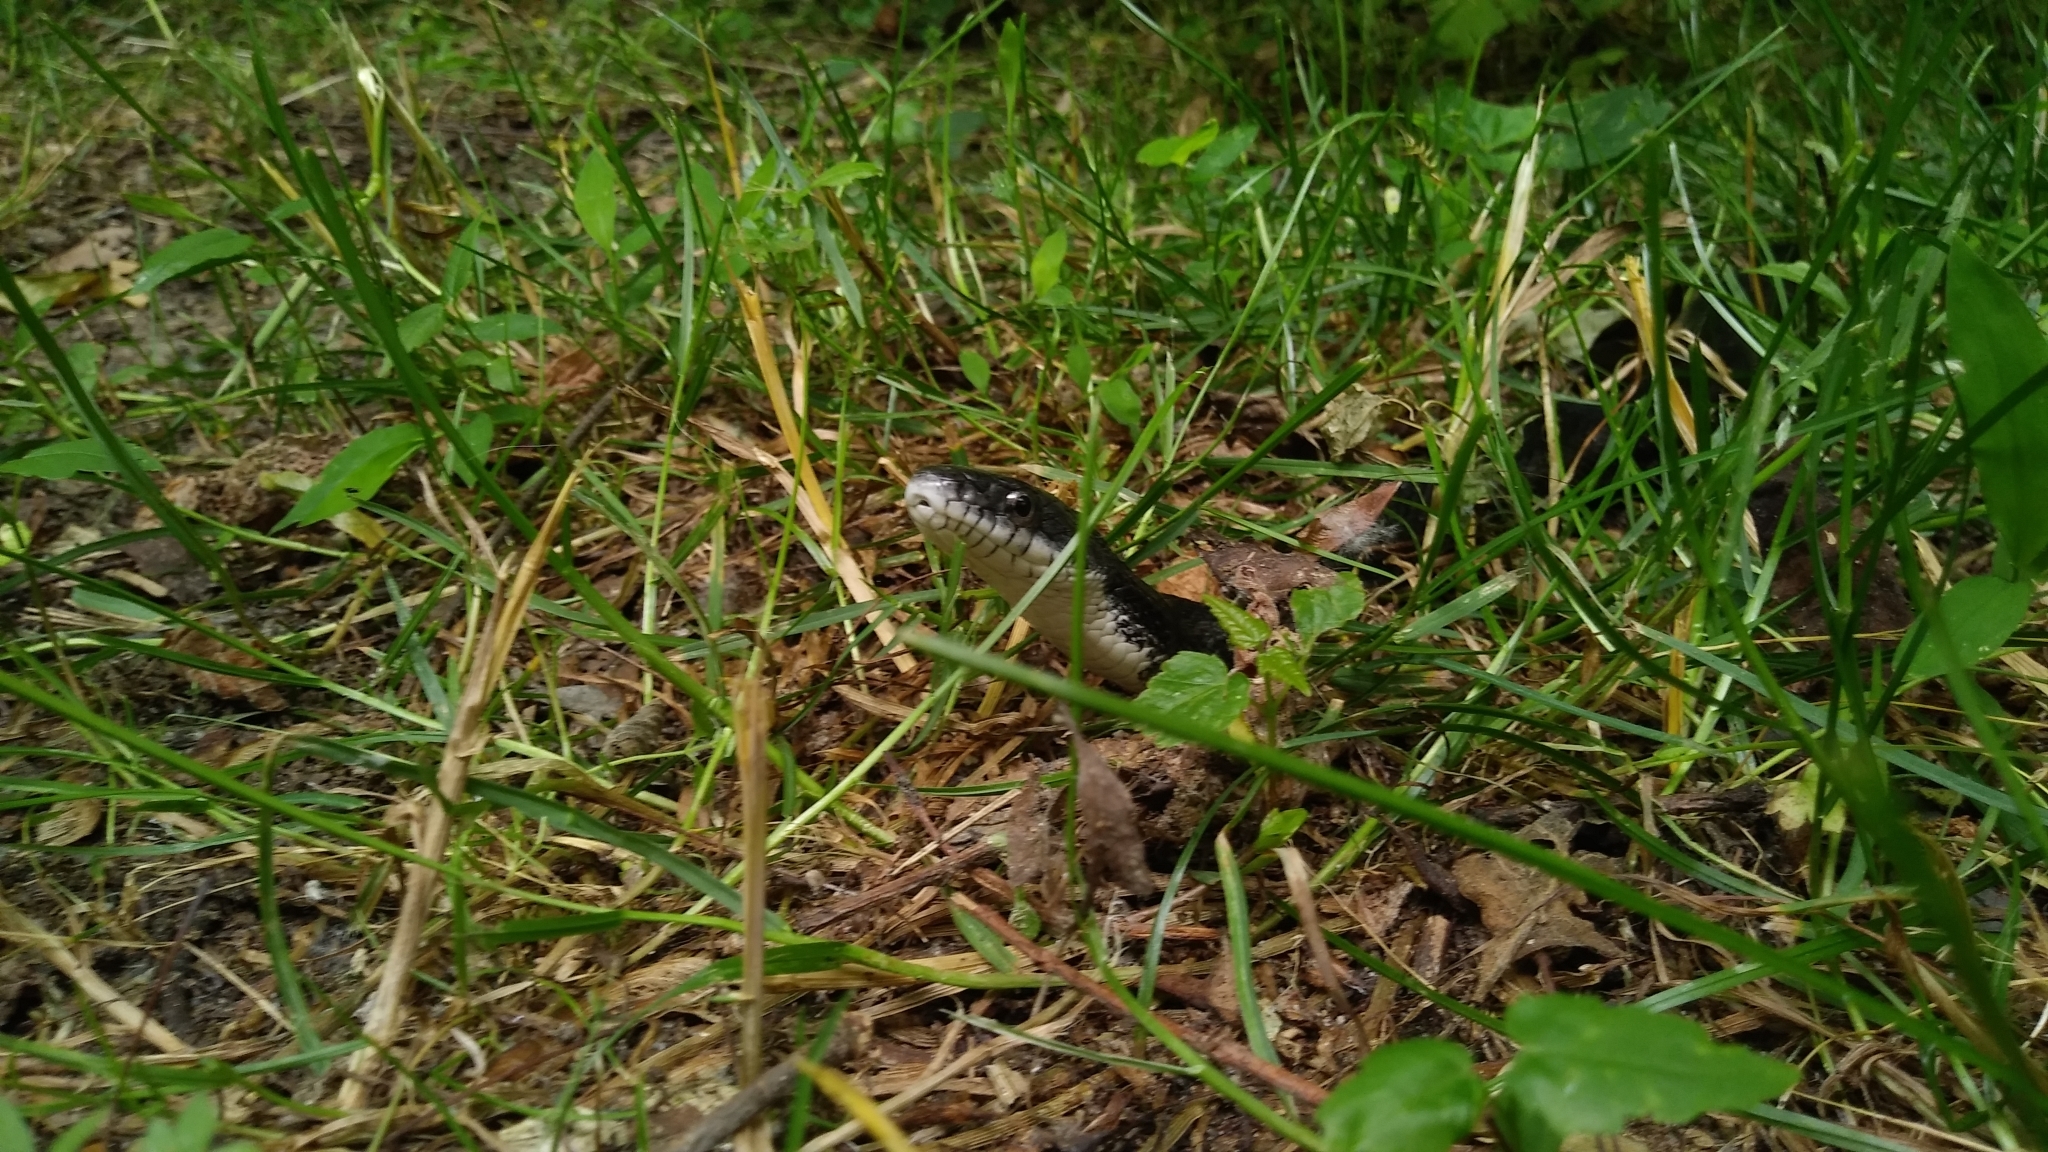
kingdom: Animalia
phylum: Chordata
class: Squamata
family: Colubridae
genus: Pantherophis
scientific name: Pantherophis alleghaniensis
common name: Eastern rat snake
